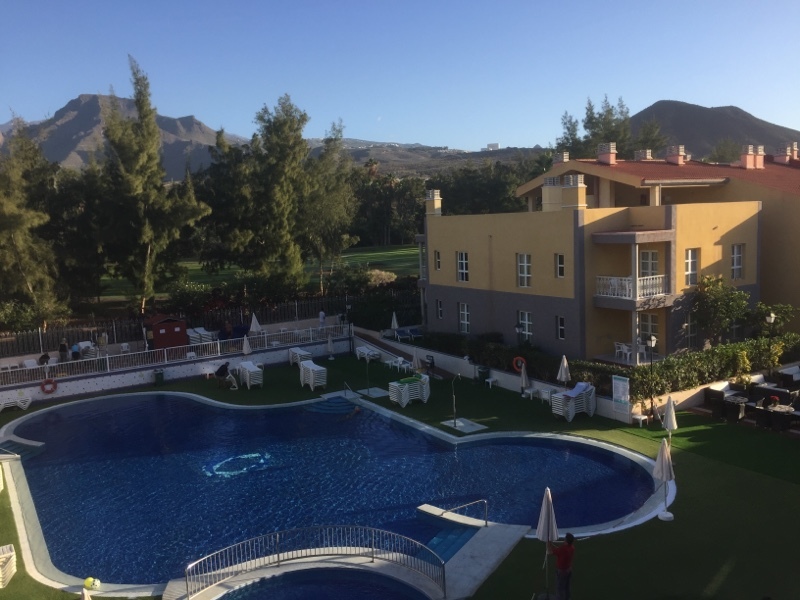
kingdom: Animalia
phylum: Chordata
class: Aves
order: Columbiformes
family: Columbidae
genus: Streptopelia
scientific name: Streptopelia decaocto
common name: Eurasian collared dove
